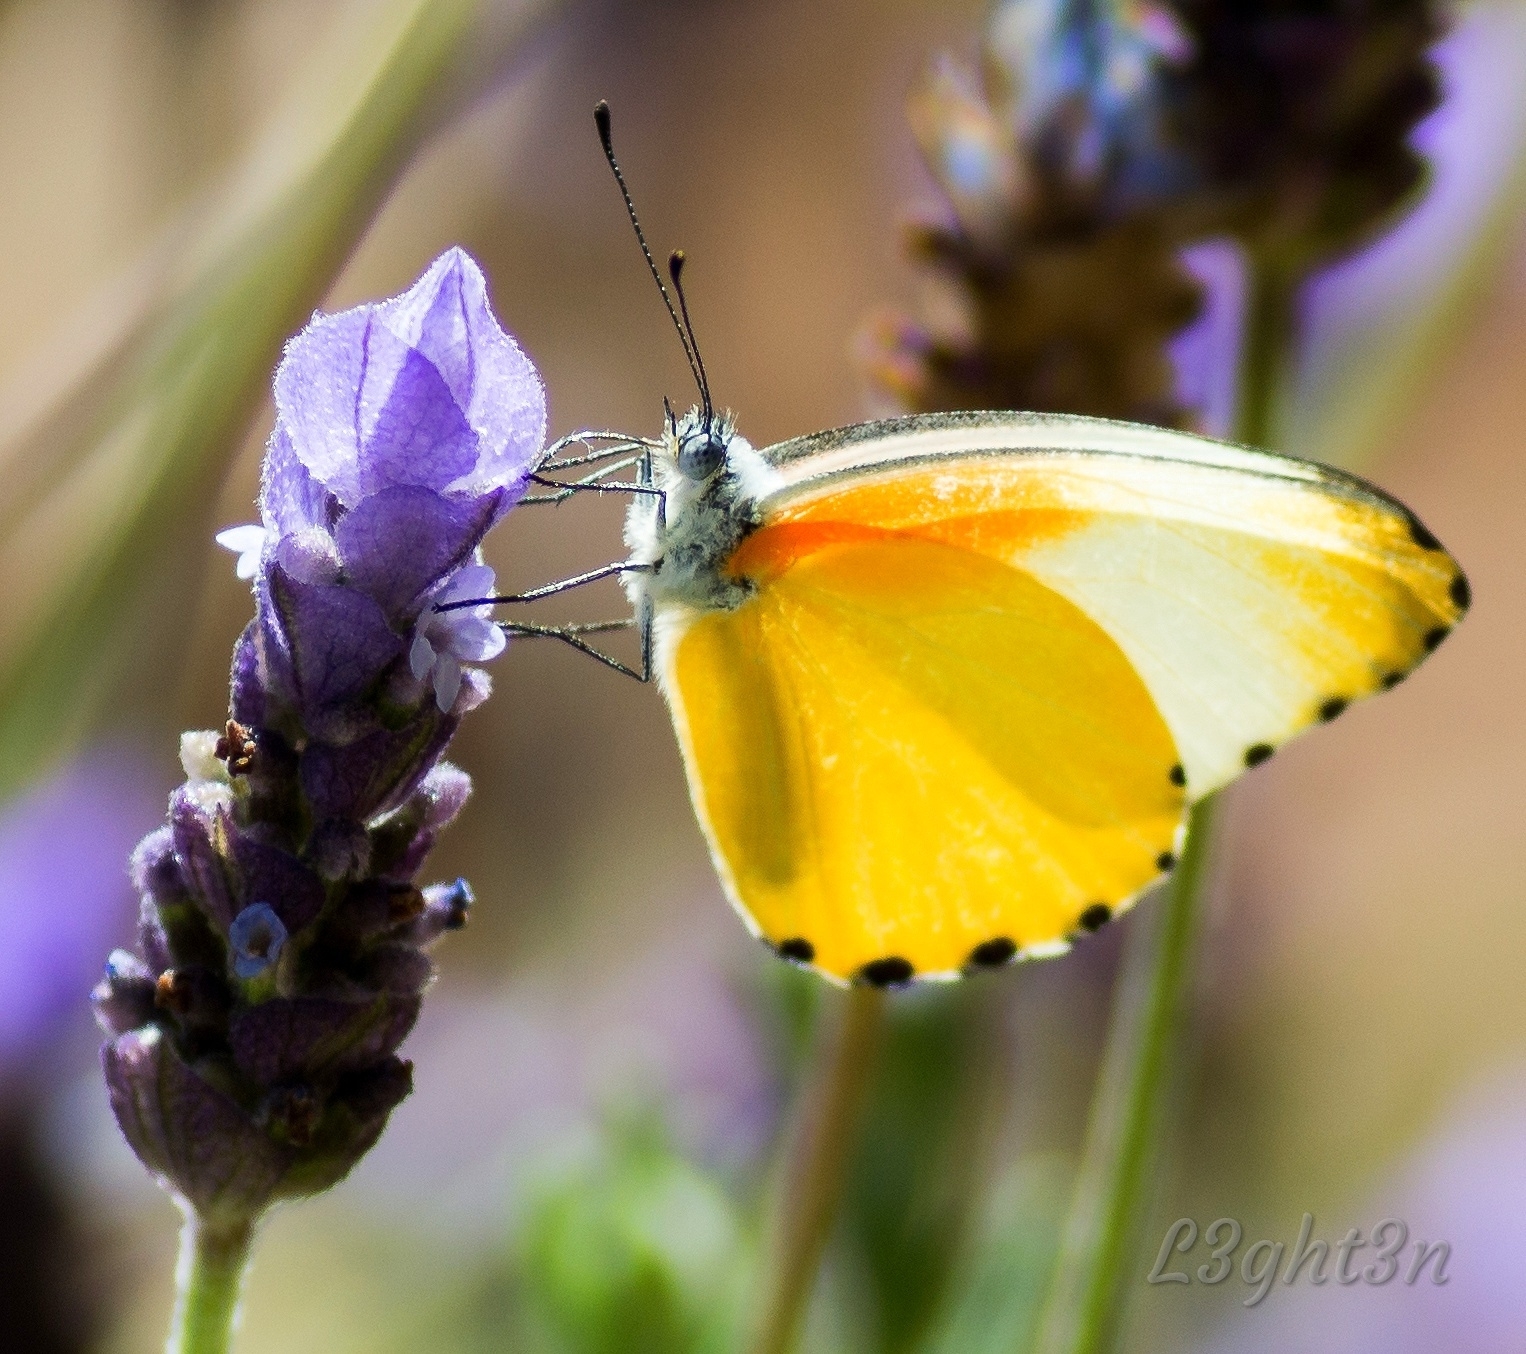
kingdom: Animalia
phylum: Arthropoda
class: Insecta
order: Lepidoptera
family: Pieridae
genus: Mylothris
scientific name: Mylothris agathina
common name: Eastern dotted border
